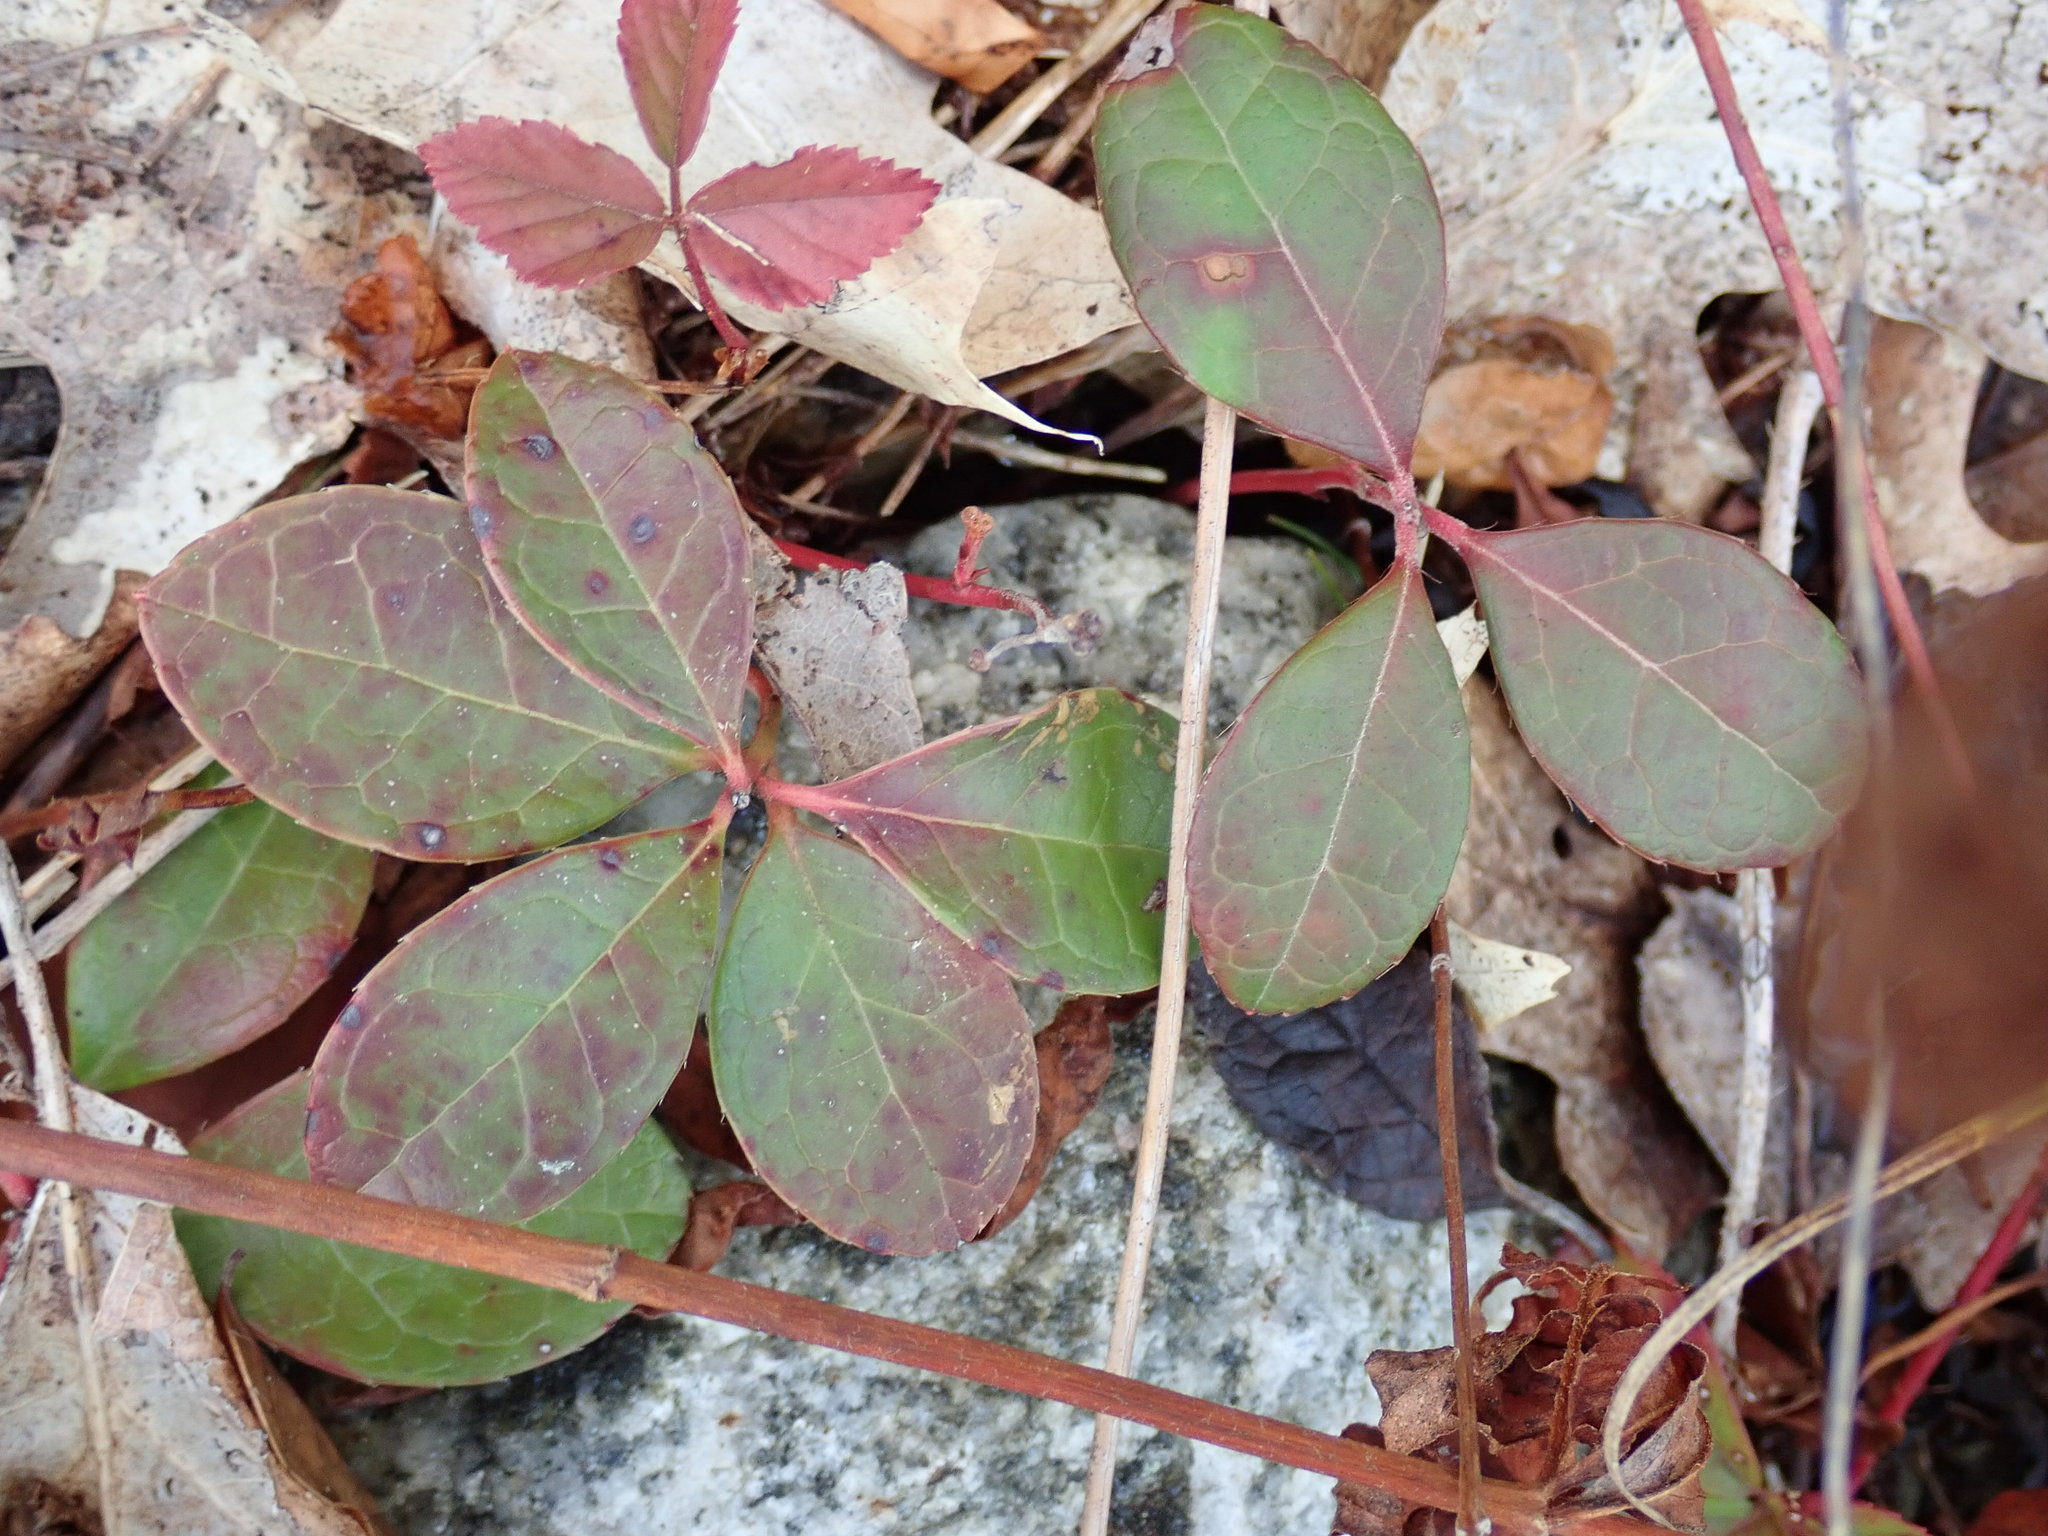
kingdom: Plantae
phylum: Tracheophyta
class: Magnoliopsida
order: Ericales
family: Ericaceae
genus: Gaultheria
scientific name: Gaultheria procumbens
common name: Checkerberry
